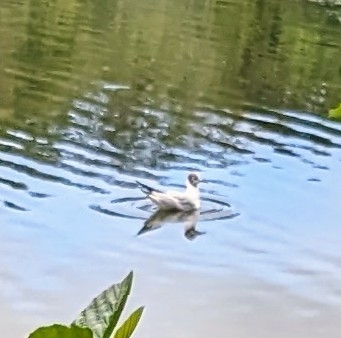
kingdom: Animalia
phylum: Chordata
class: Aves
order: Charadriiformes
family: Laridae
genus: Chroicocephalus
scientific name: Chroicocephalus ridibundus
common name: Black-headed gull
